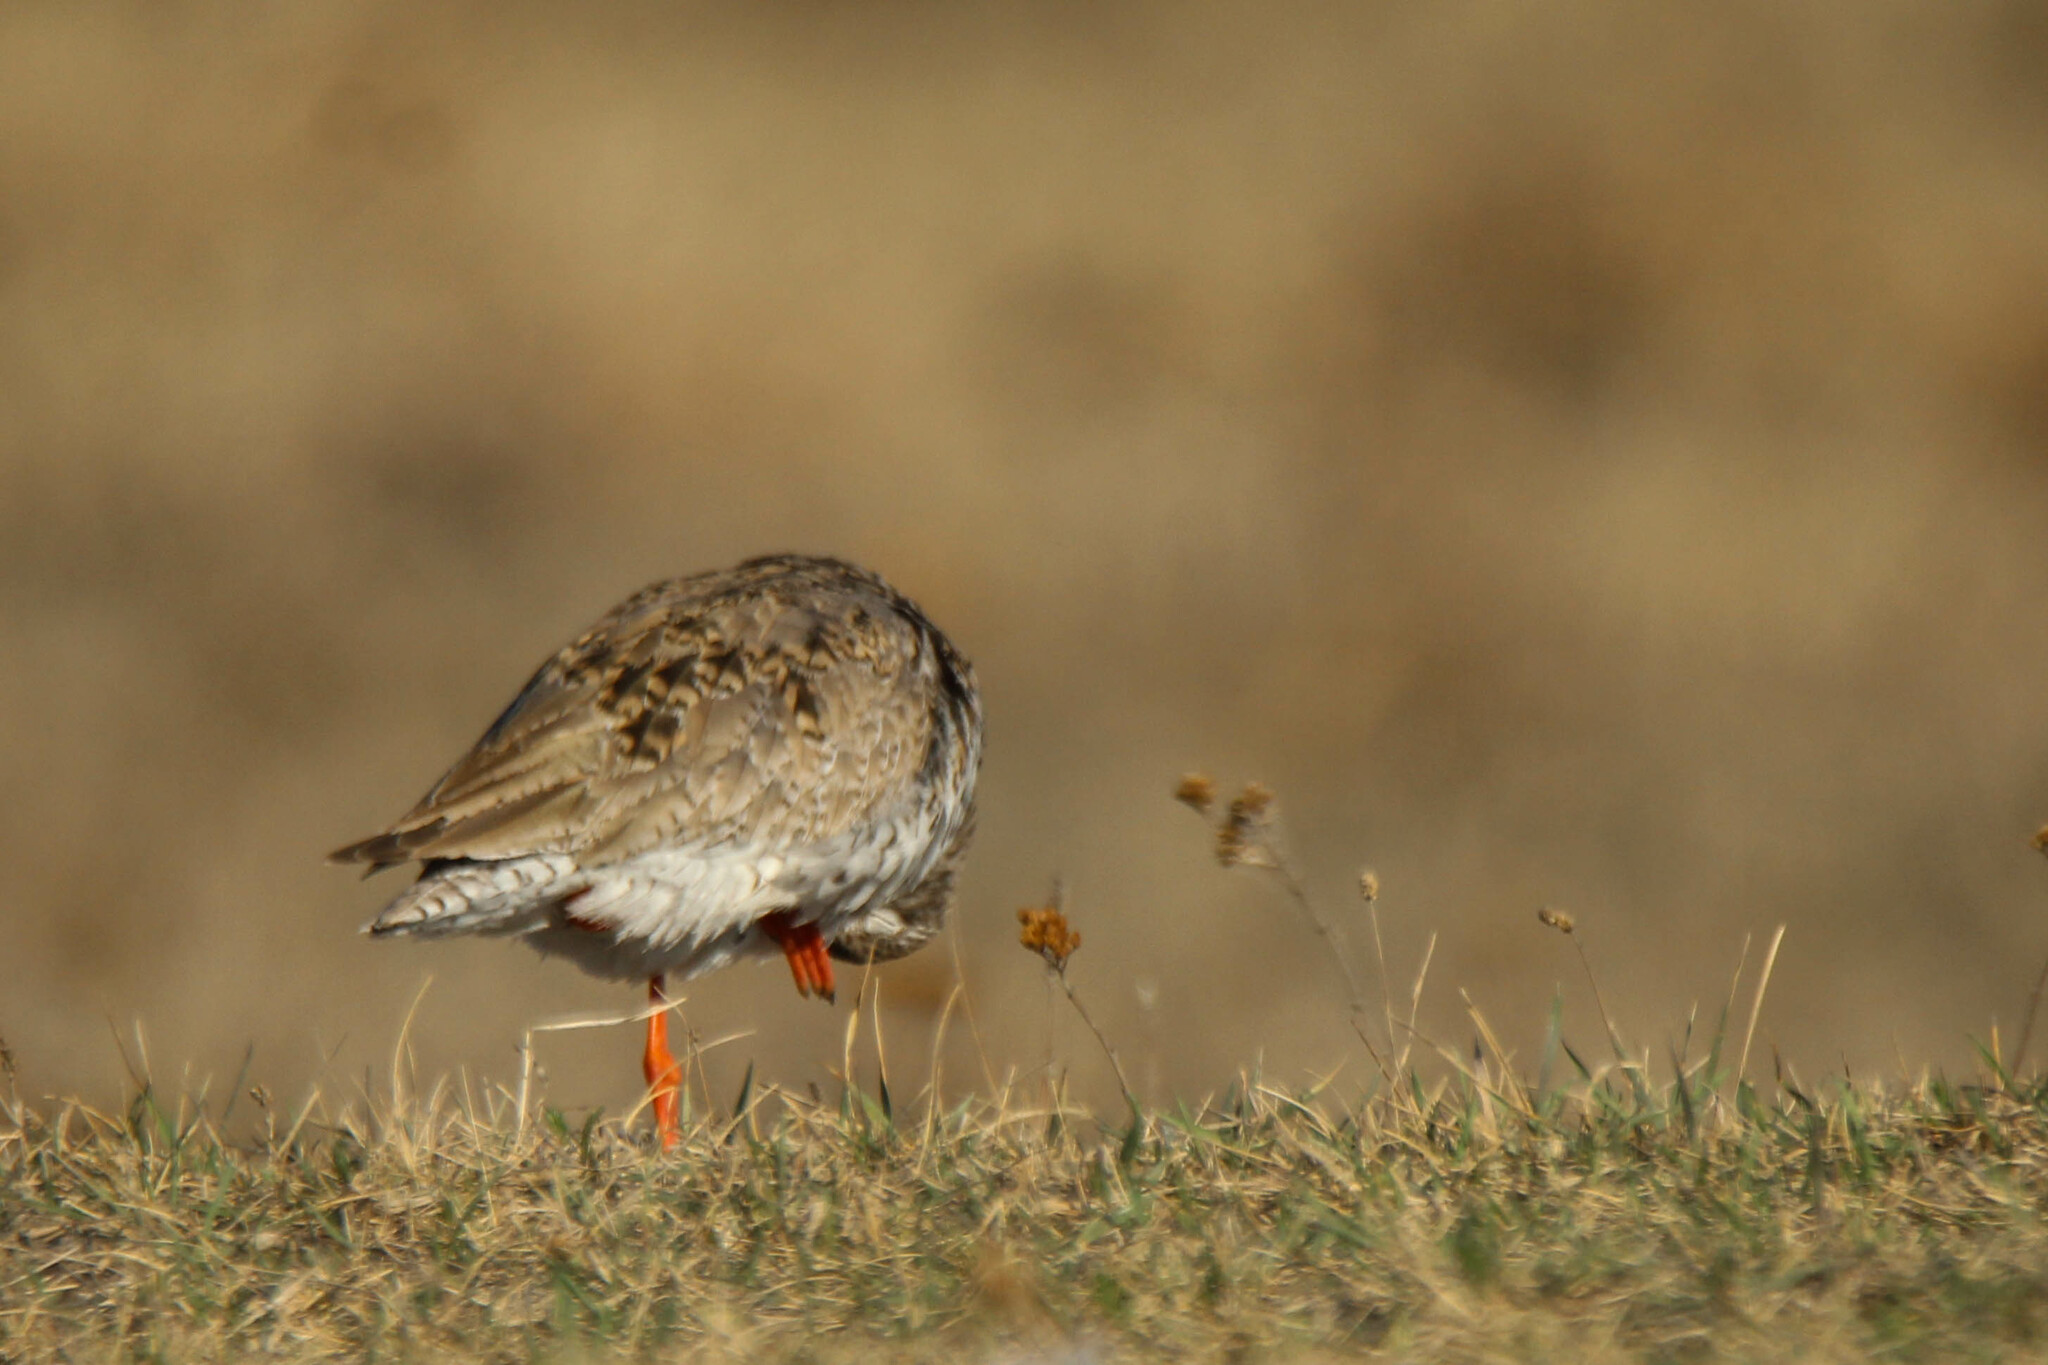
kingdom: Animalia
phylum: Chordata
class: Aves
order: Charadriiformes
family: Scolopacidae
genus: Tringa
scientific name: Tringa totanus
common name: Common redshank
